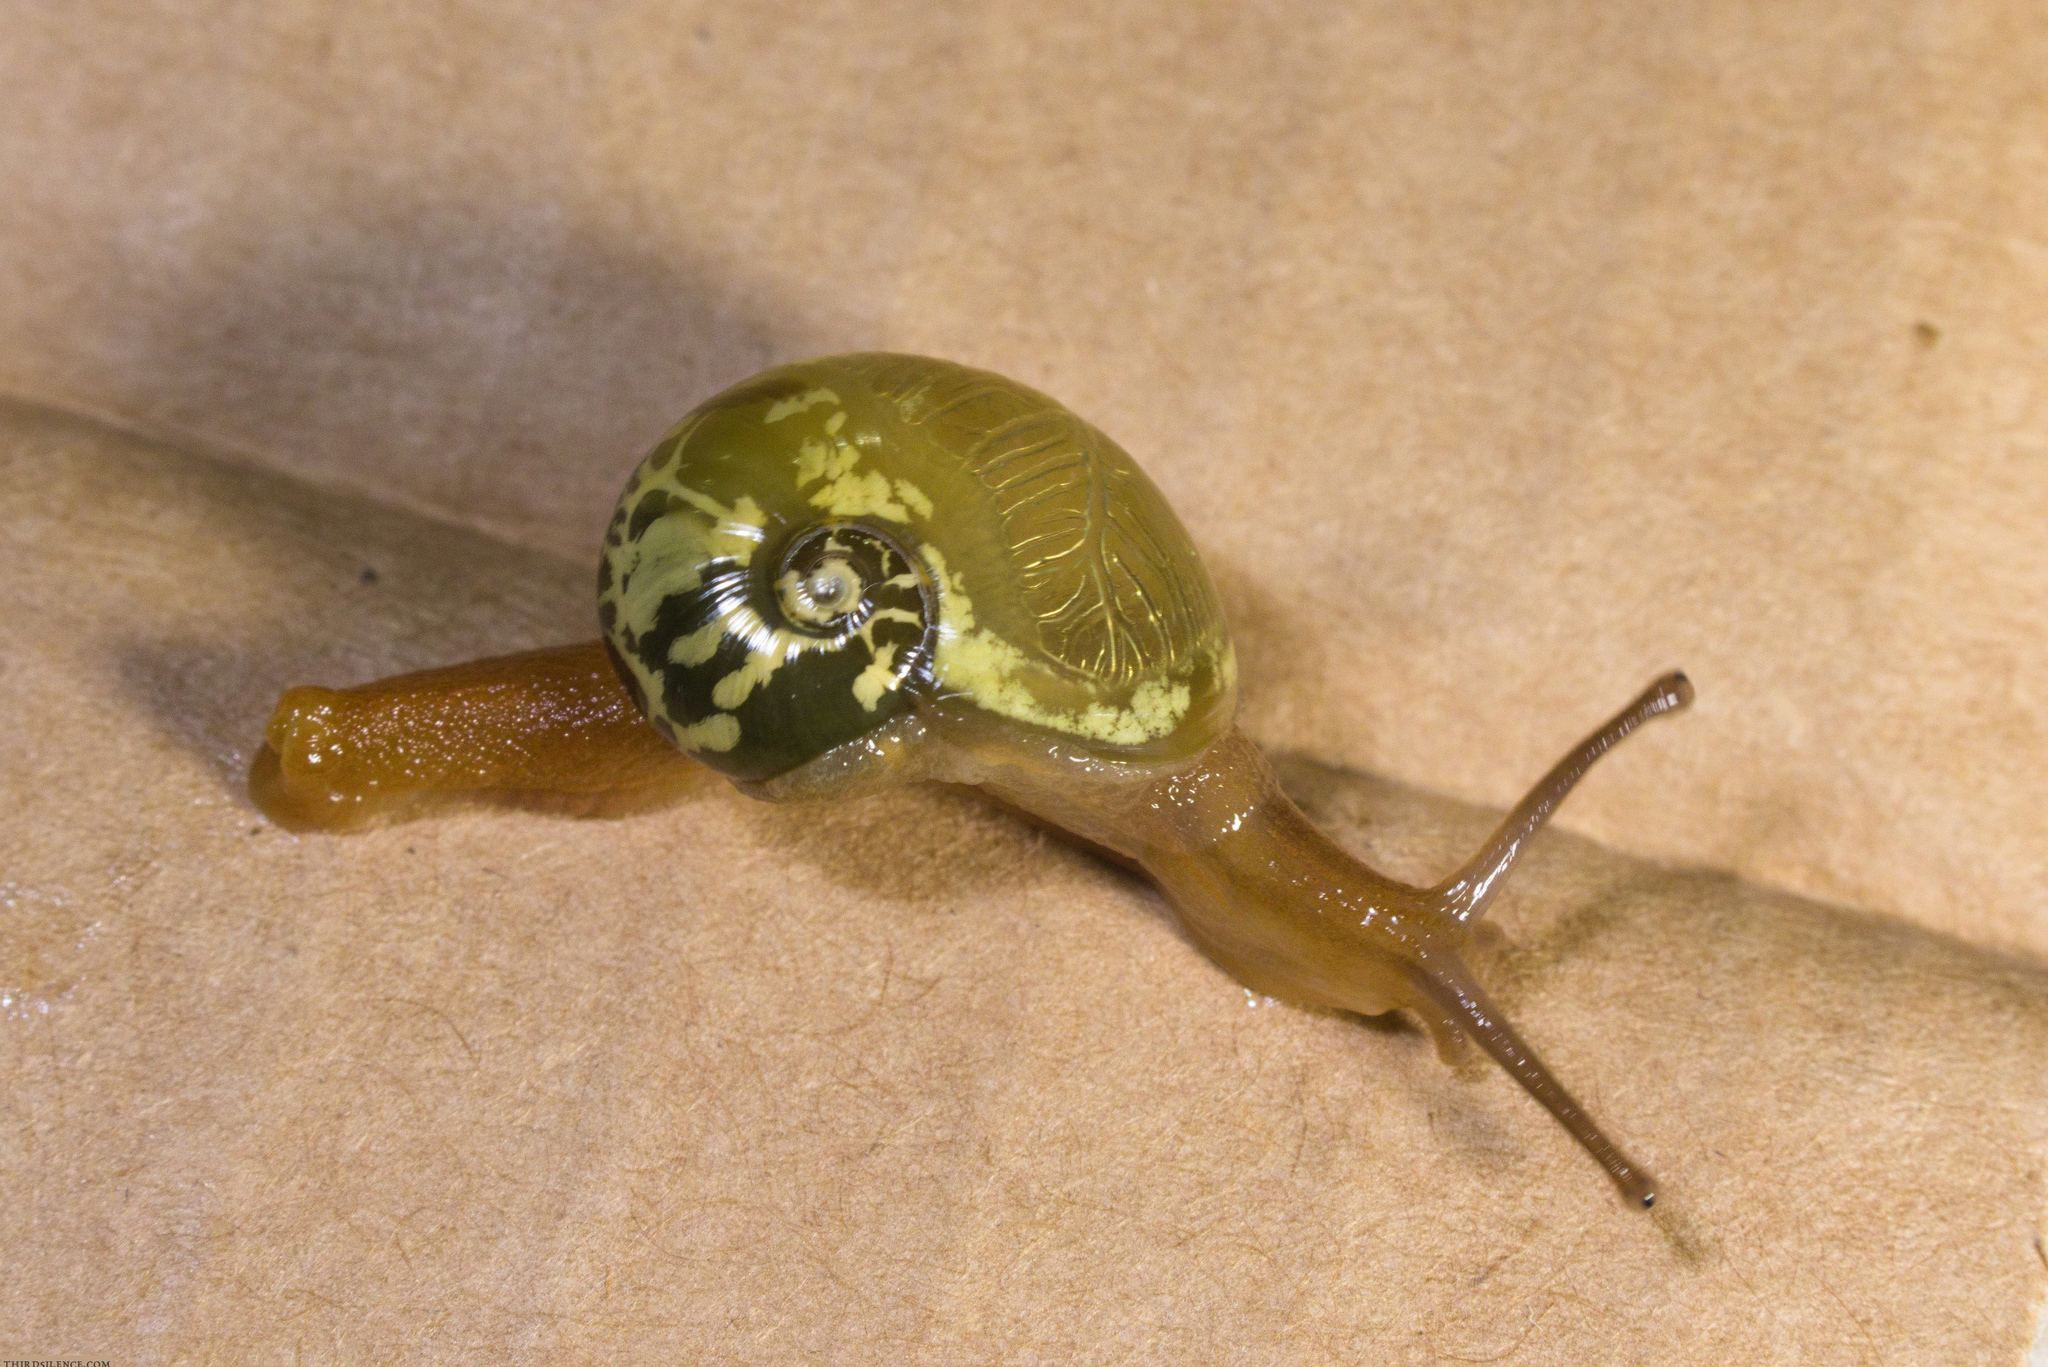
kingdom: Animalia
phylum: Mollusca
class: Gastropoda
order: Stylommatophora
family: Helicarionidae
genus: Mysticarion
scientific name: Mysticarion porrectus
